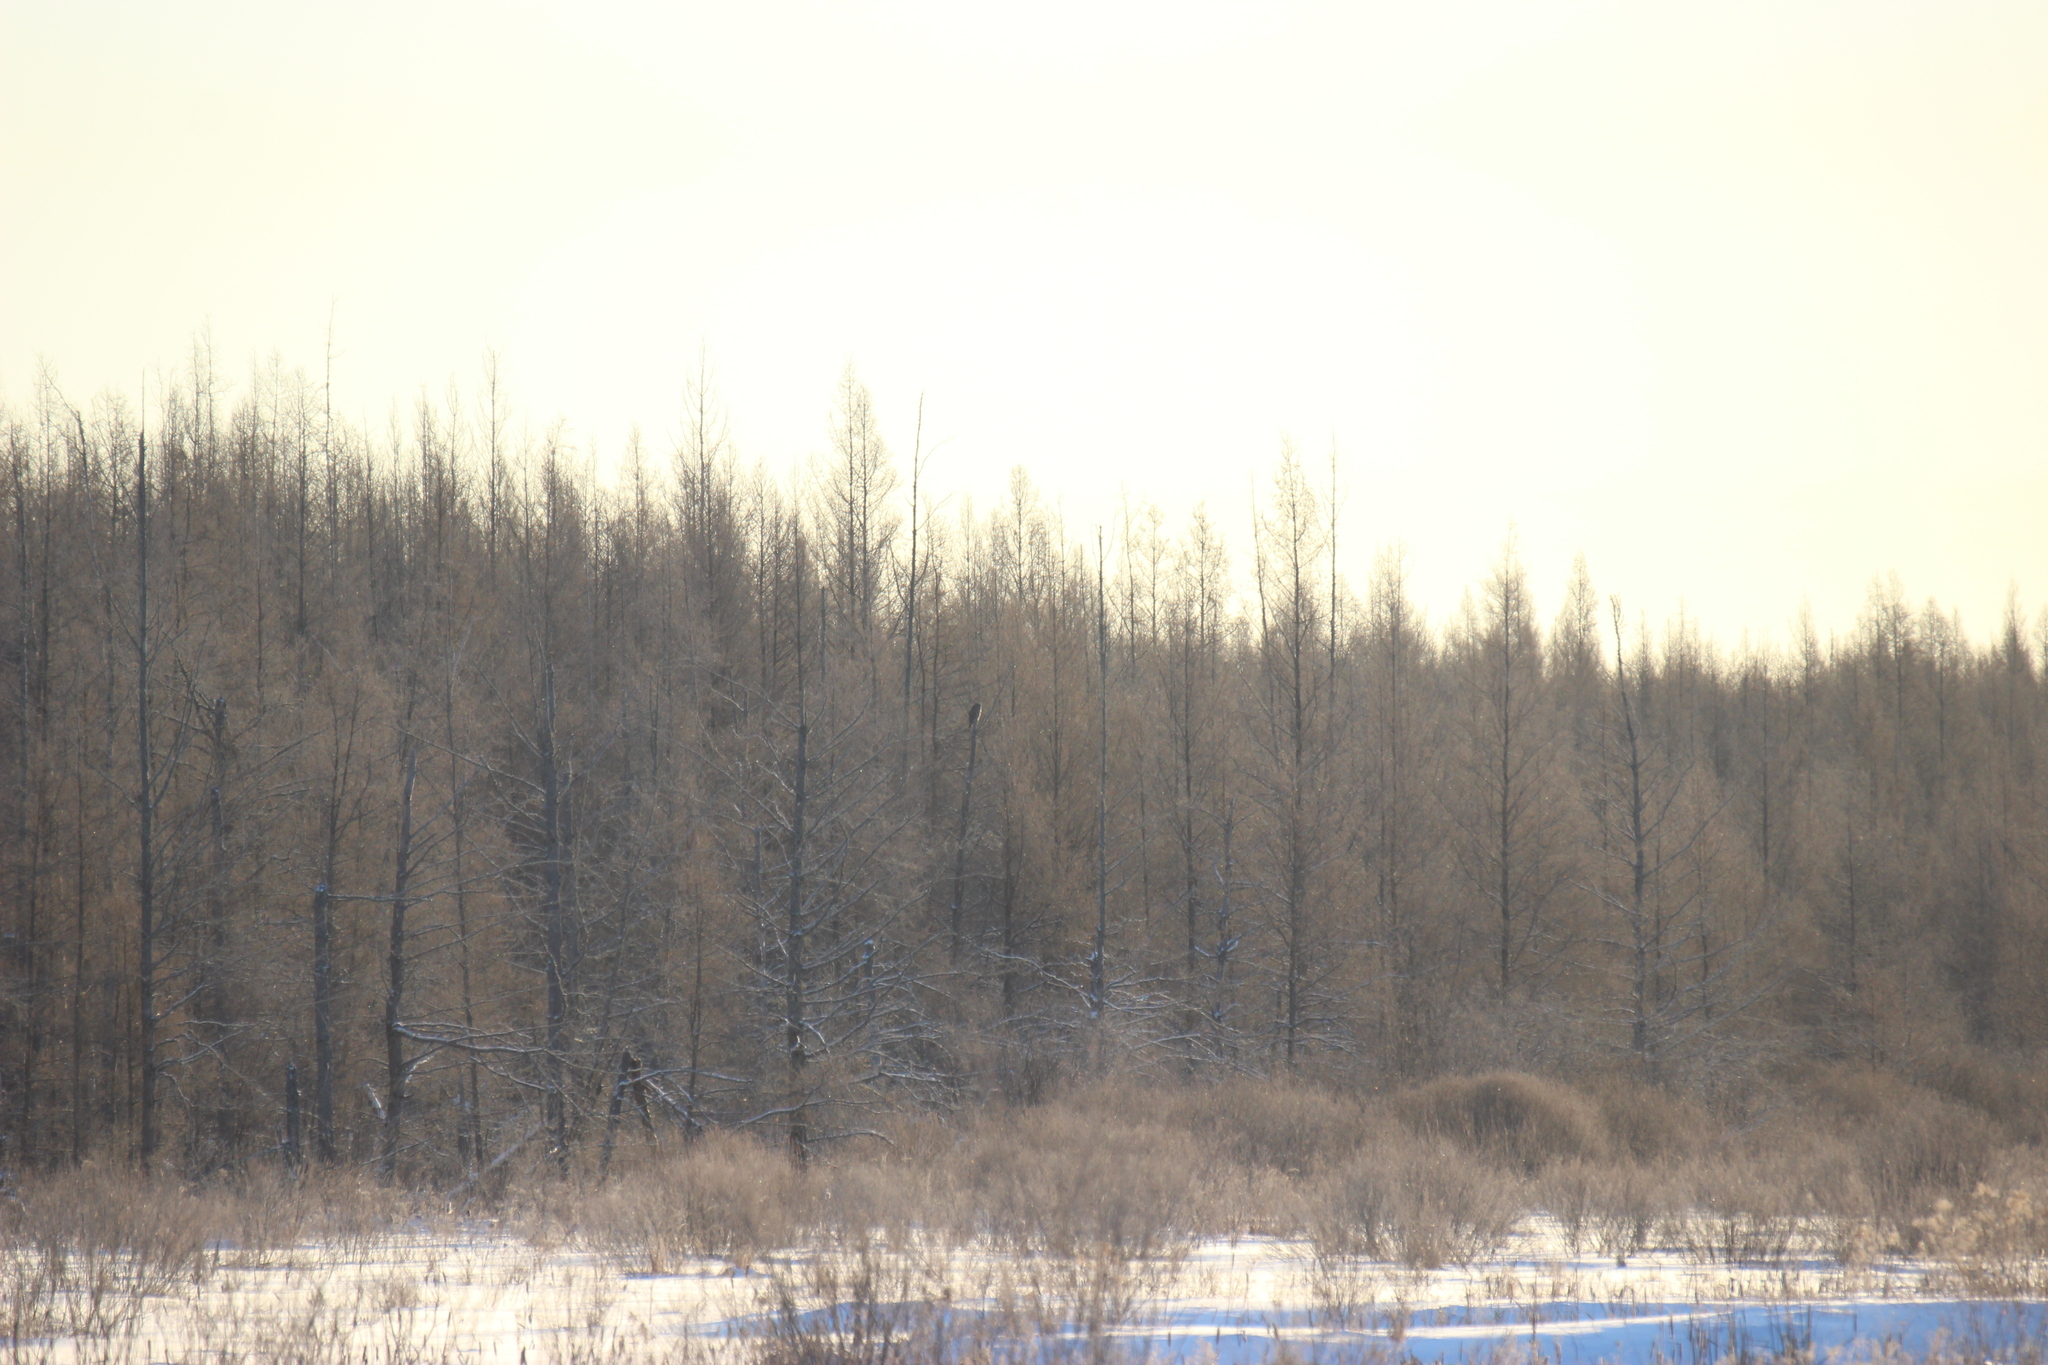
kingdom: Animalia
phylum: Chordata
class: Aves
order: Strigiformes
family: Strigidae
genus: Strix
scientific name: Strix nebulosa
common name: Great grey owl
